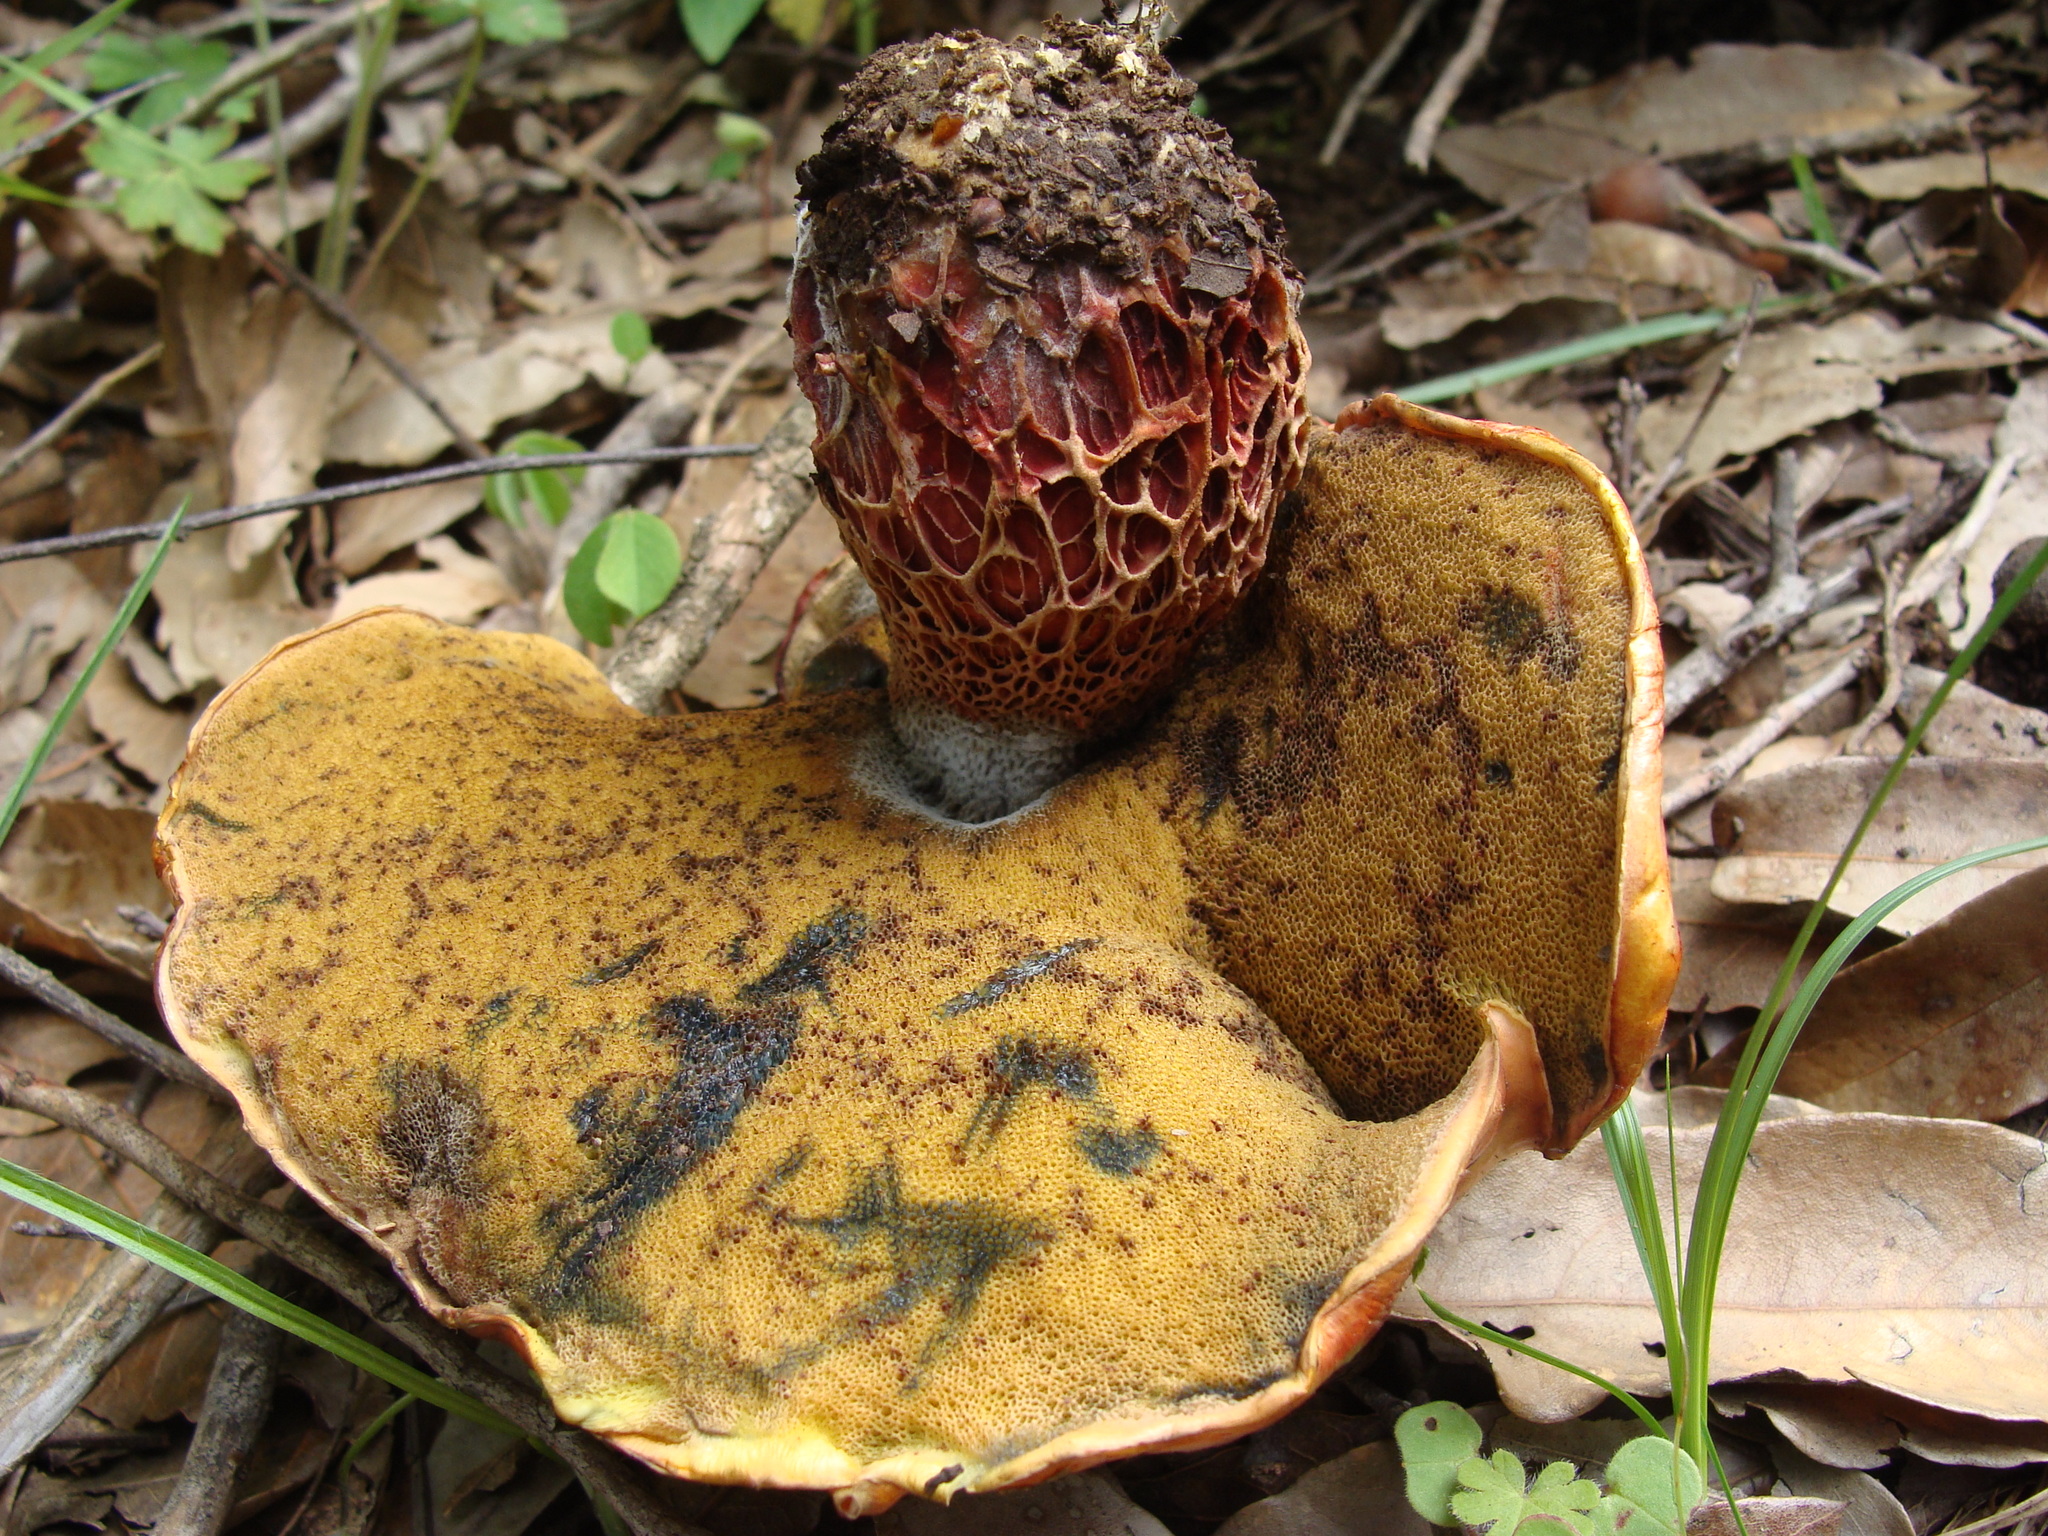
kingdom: Fungi
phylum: Basidiomycota
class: Agaricomycetes
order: Boletales
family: Boletaceae
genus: Butyriboletus
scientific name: Butyriboletus frostii
